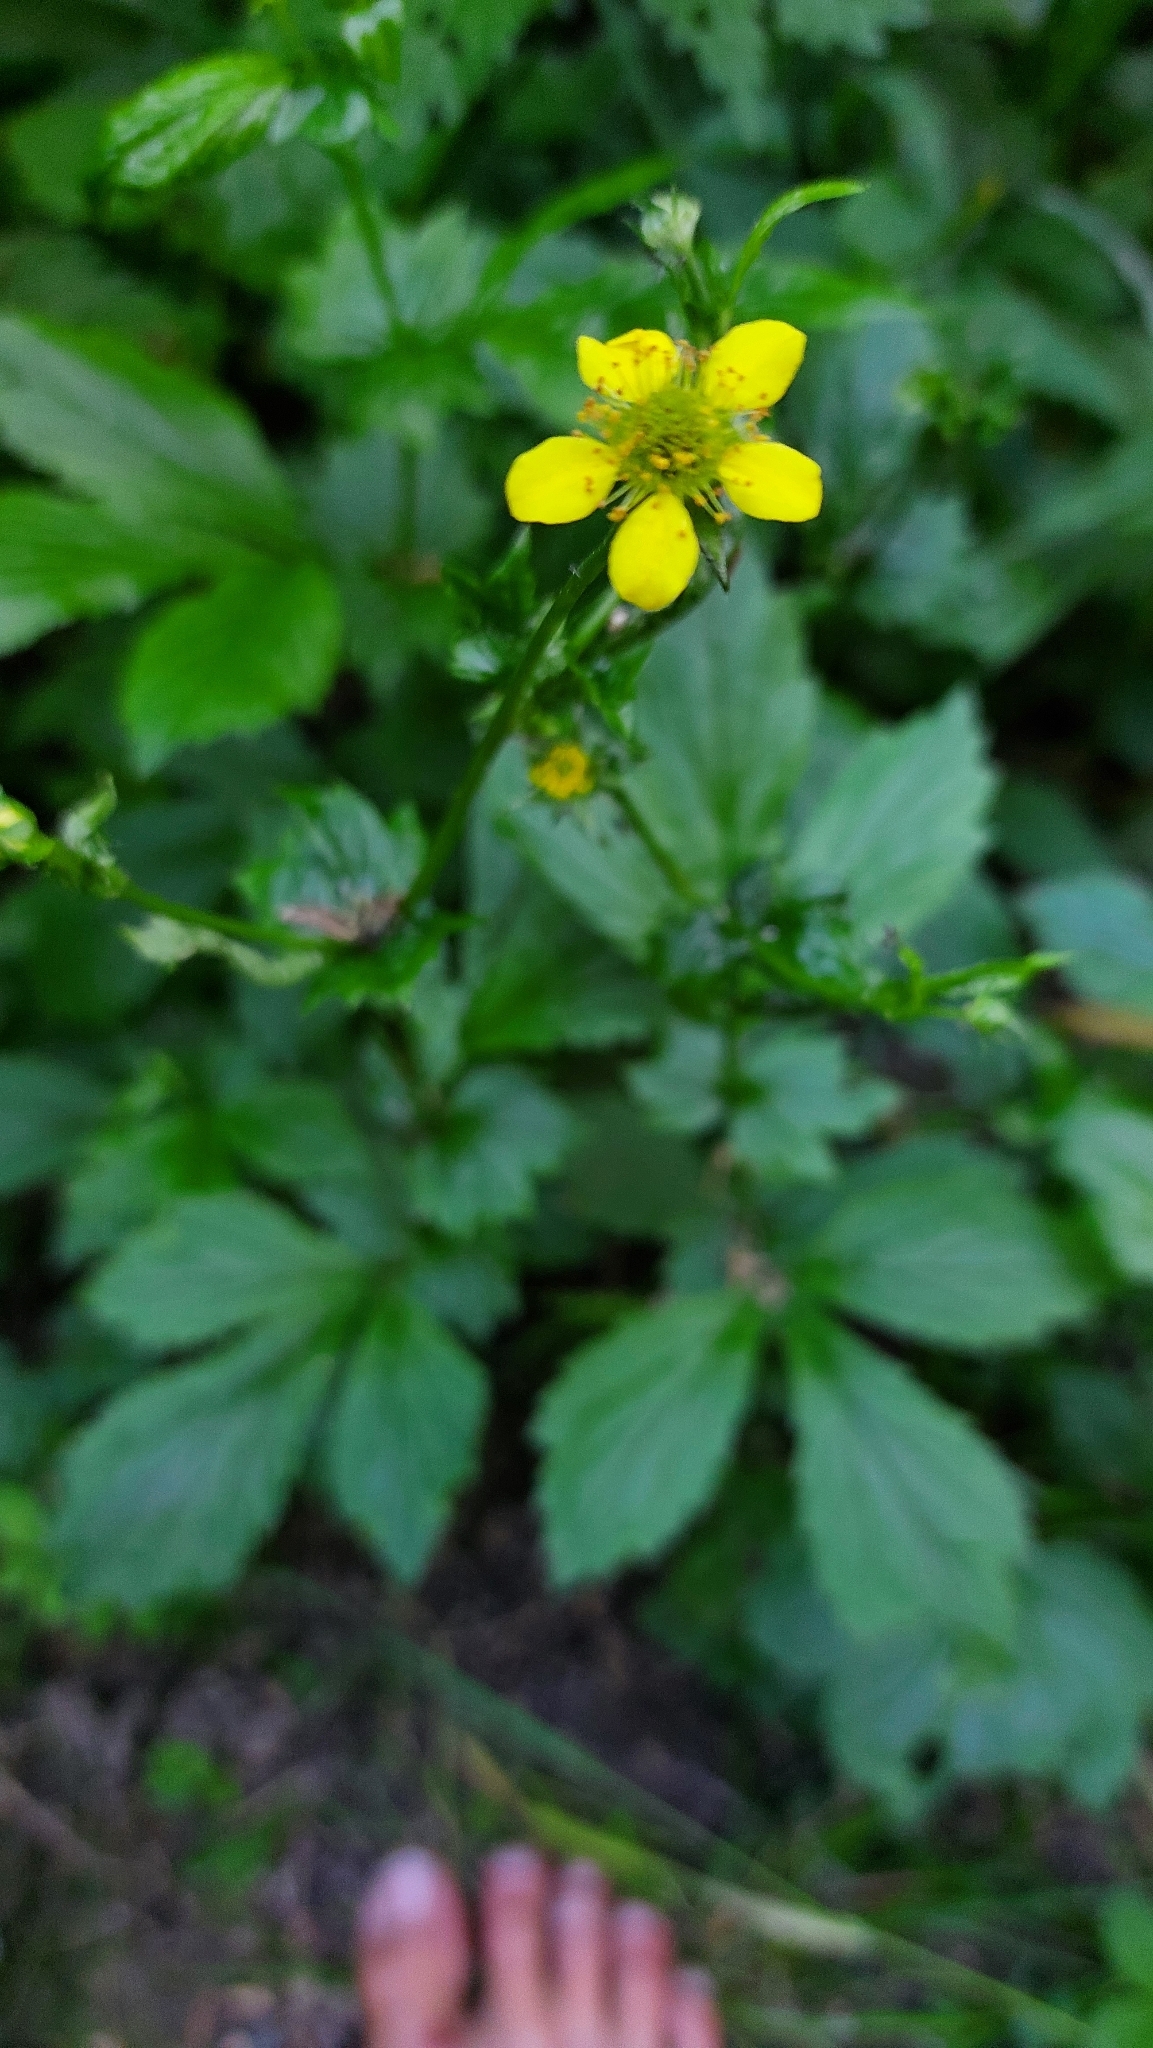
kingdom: Plantae
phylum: Tracheophyta
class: Magnoliopsida
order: Rosales
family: Rosaceae
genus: Geum
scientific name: Geum urbanum
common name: Wood avens
